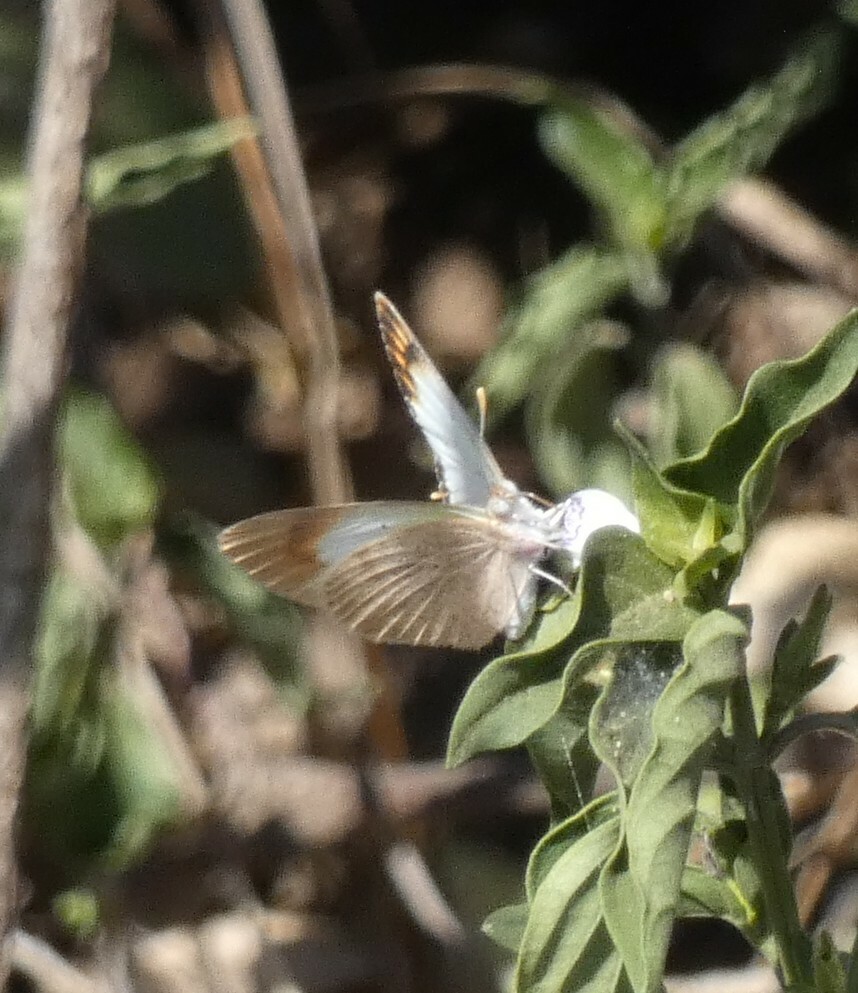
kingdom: Animalia
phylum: Arthropoda
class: Insecta
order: Lepidoptera
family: Pieridae
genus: Colotis
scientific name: Colotis evagore
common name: Desert orange-tip
